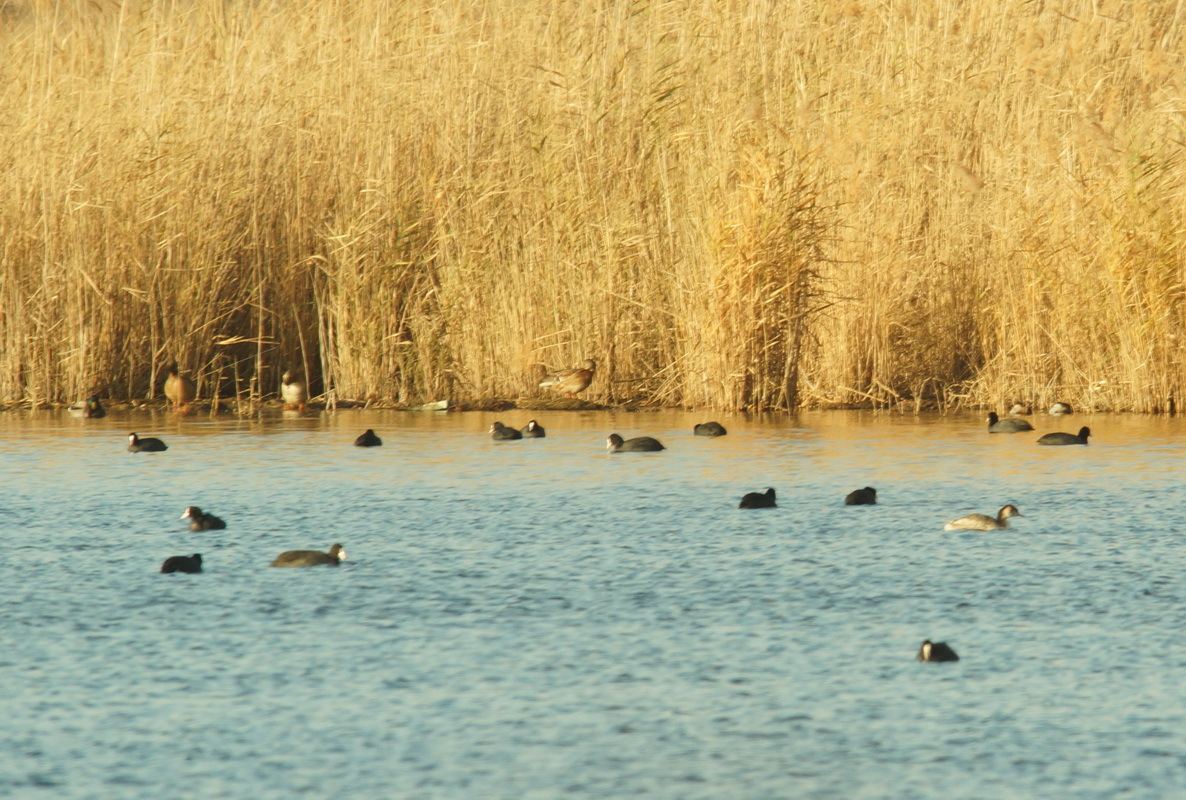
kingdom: Animalia
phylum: Chordata
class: Aves
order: Anseriformes
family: Anatidae
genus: Anas
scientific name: Anas platyrhynchos
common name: Mallard
